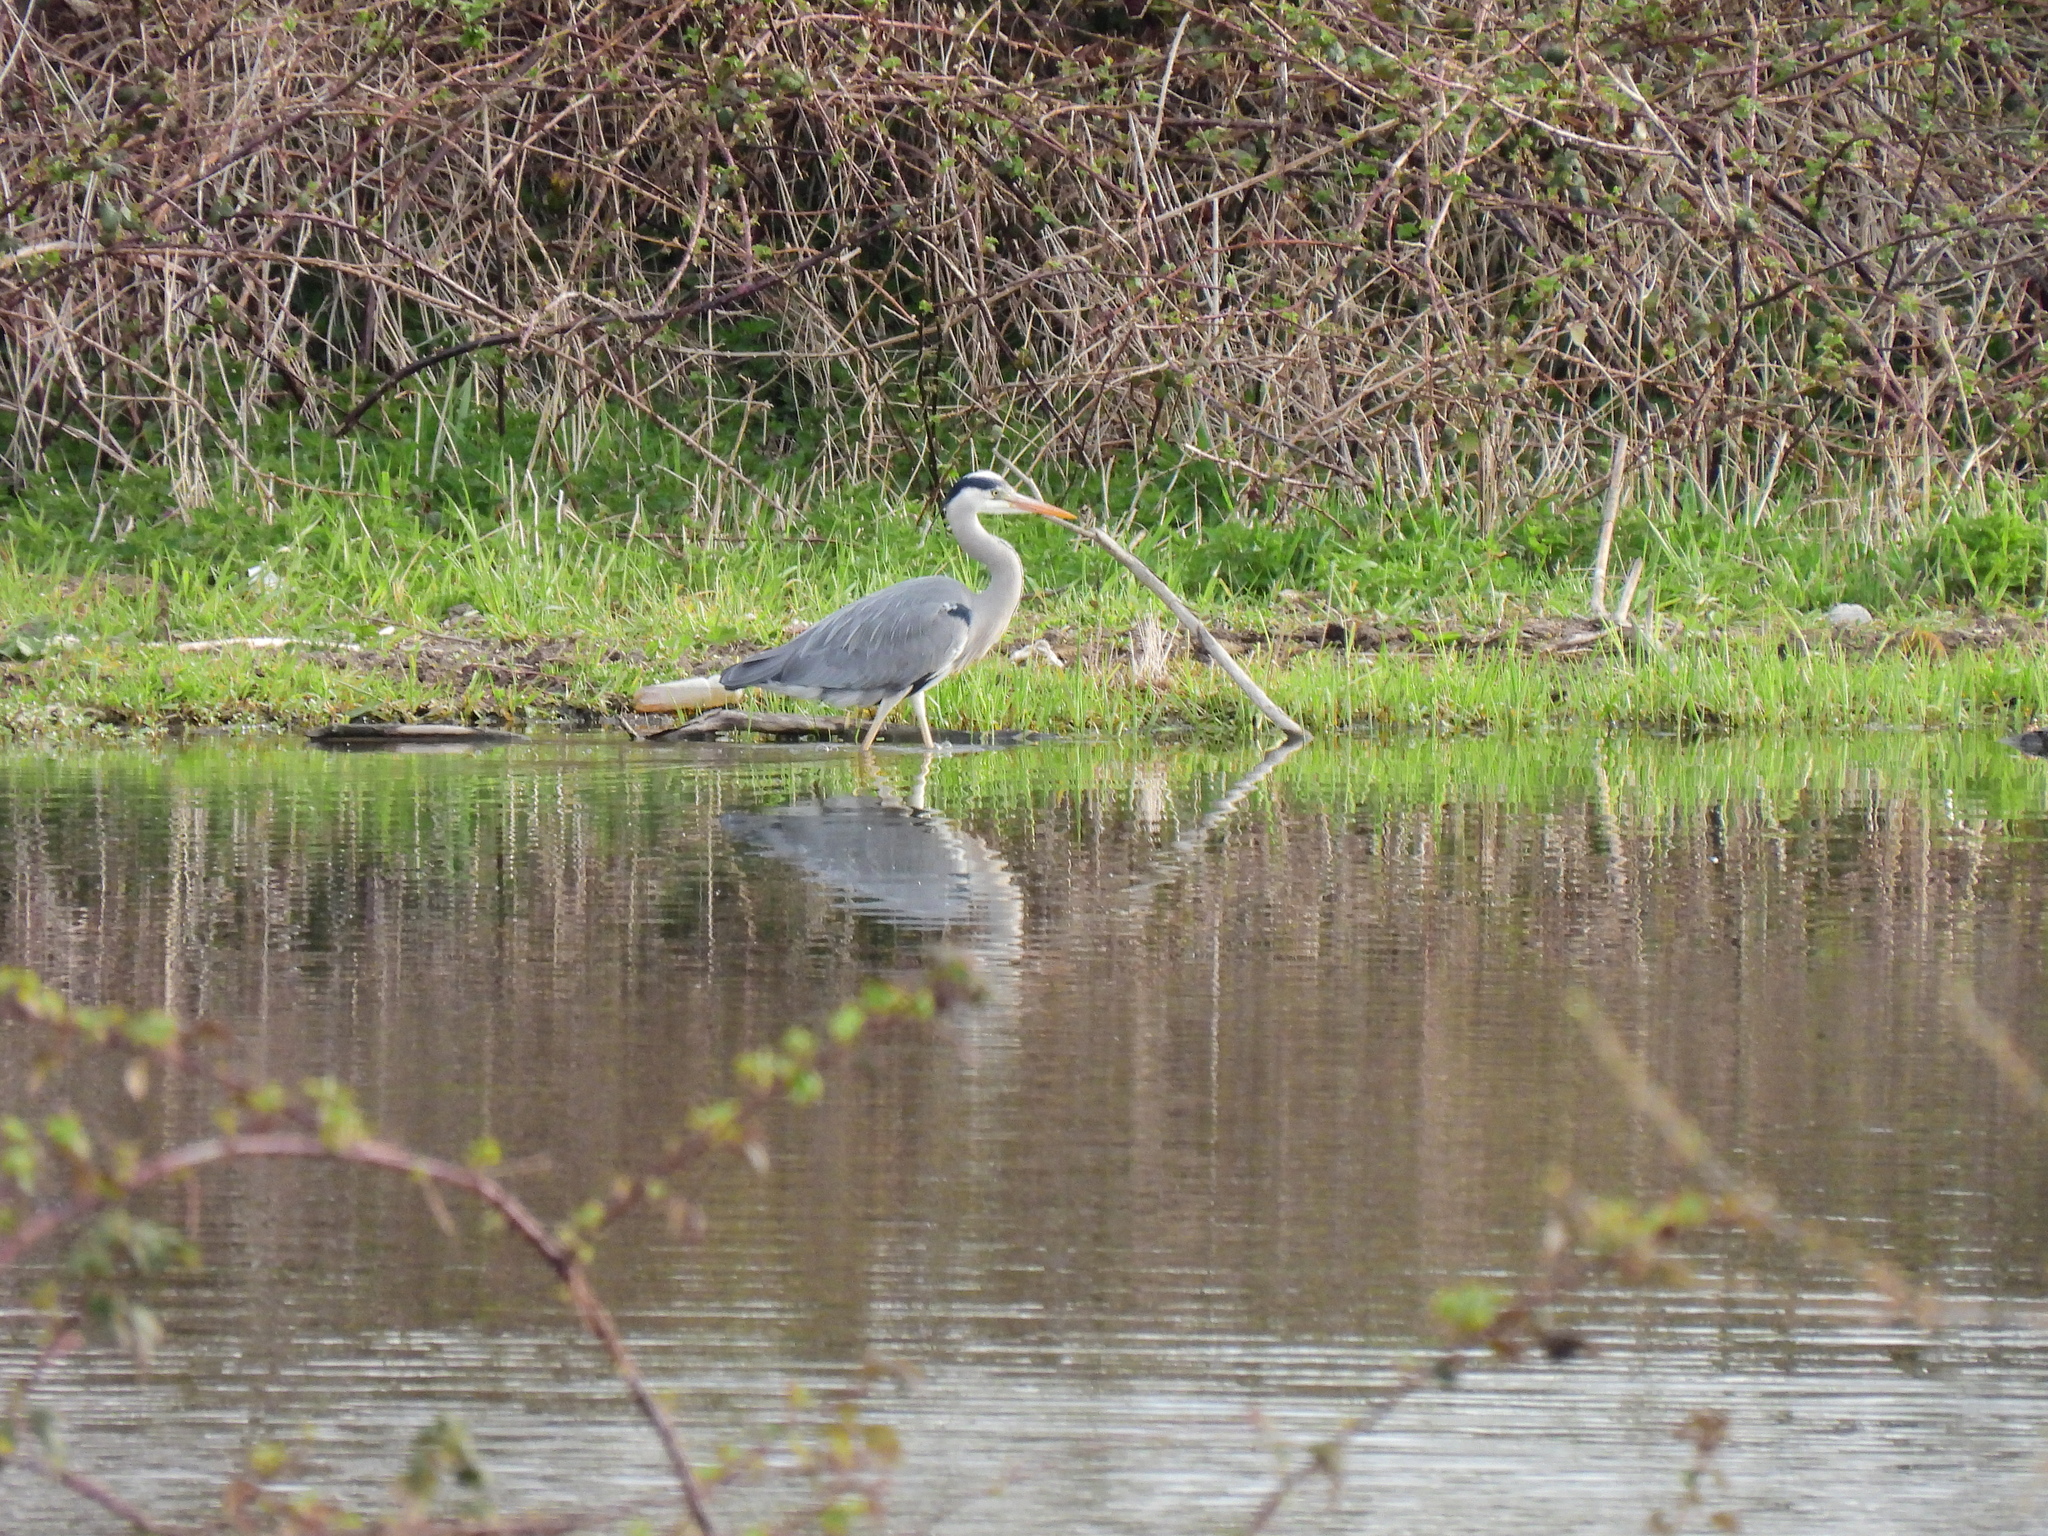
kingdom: Animalia
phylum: Chordata
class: Aves
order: Pelecaniformes
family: Ardeidae
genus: Ardea
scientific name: Ardea cinerea
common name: Grey heron
